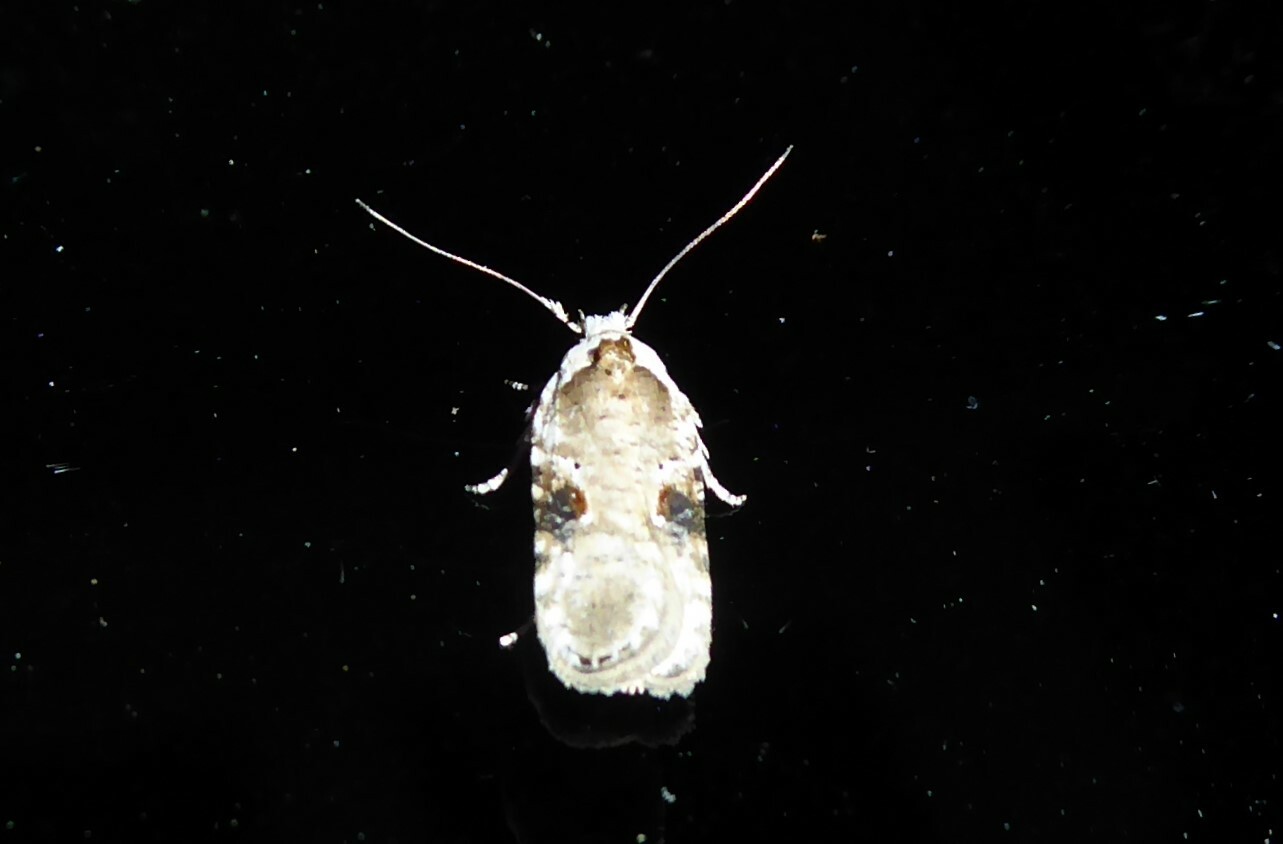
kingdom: Animalia
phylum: Arthropoda
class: Insecta
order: Lepidoptera
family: Depressariidae
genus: Agonopterix
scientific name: Agonopterix alstroemeriana
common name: Moth
